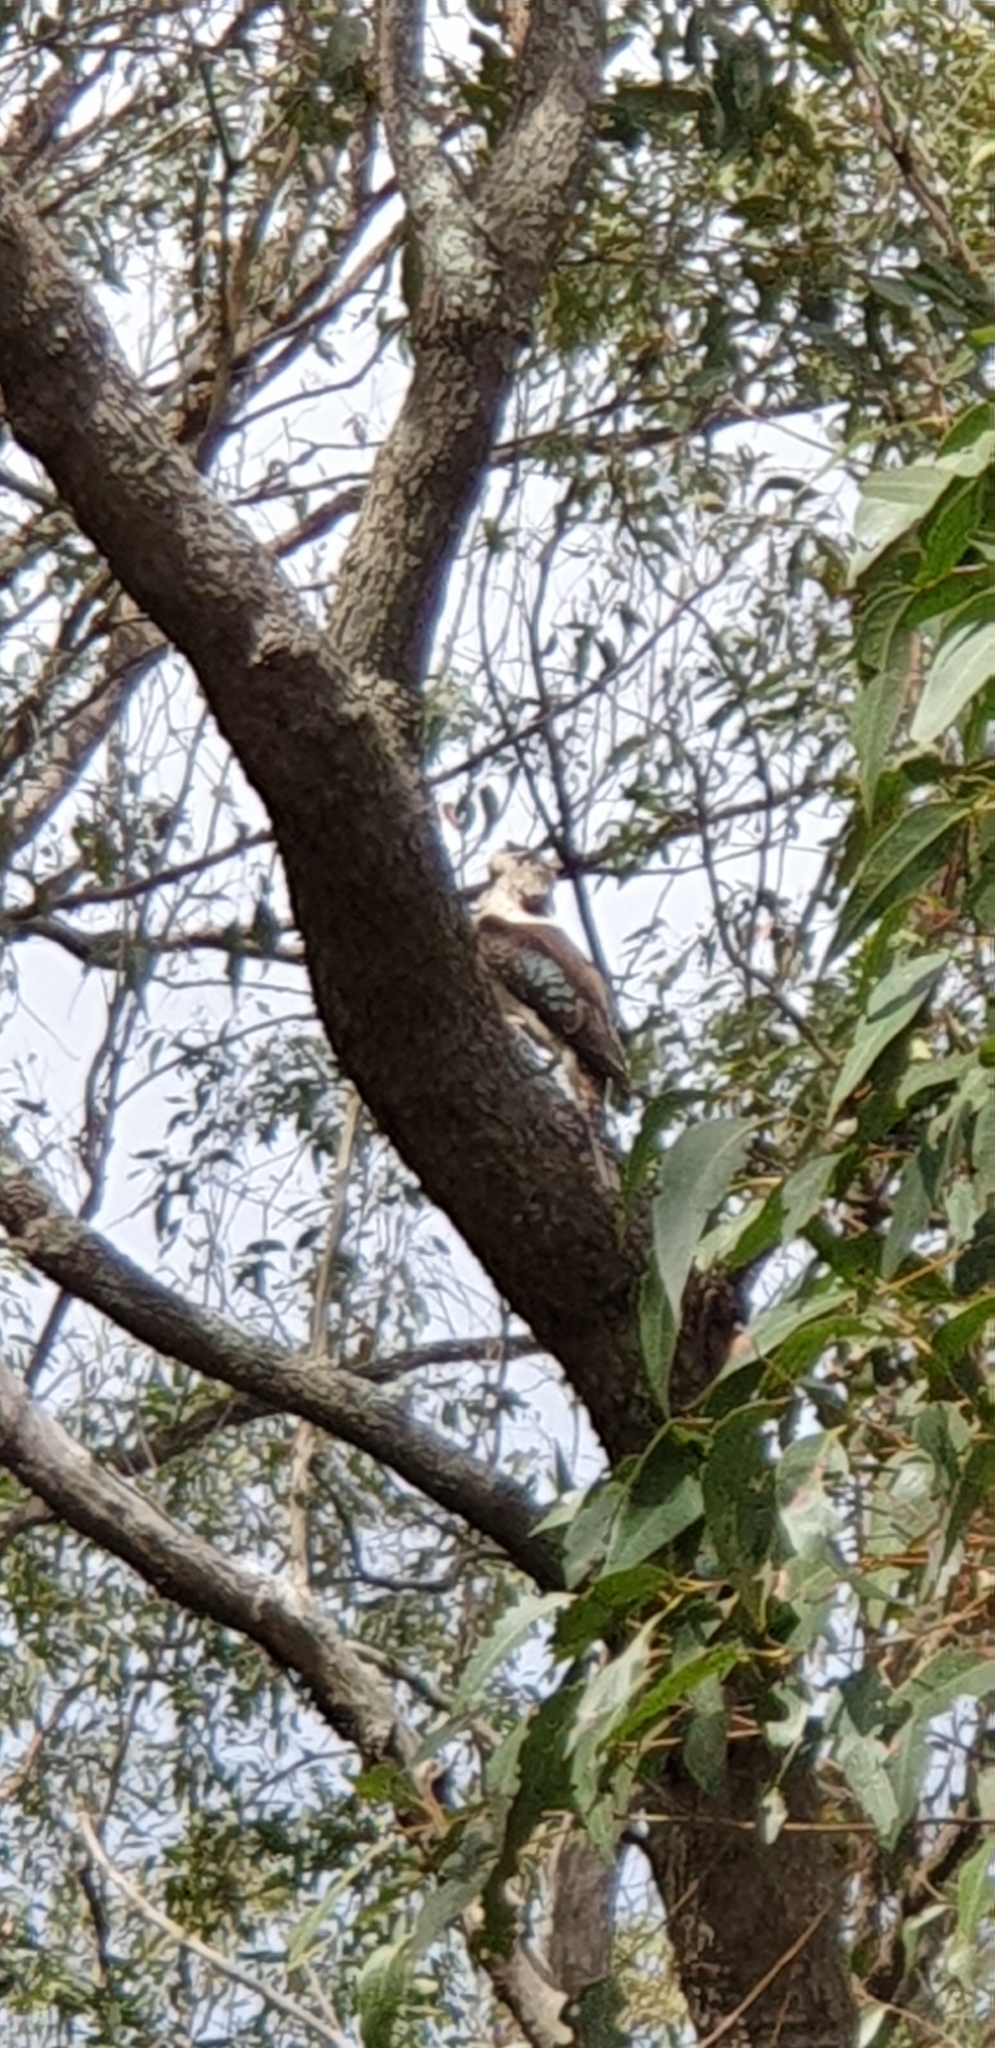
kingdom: Animalia
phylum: Chordata
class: Aves
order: Coraciiformes
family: Alcedinidae
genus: Dacelo
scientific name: Dacelo novaeguineae
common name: Laughing kookaburra
